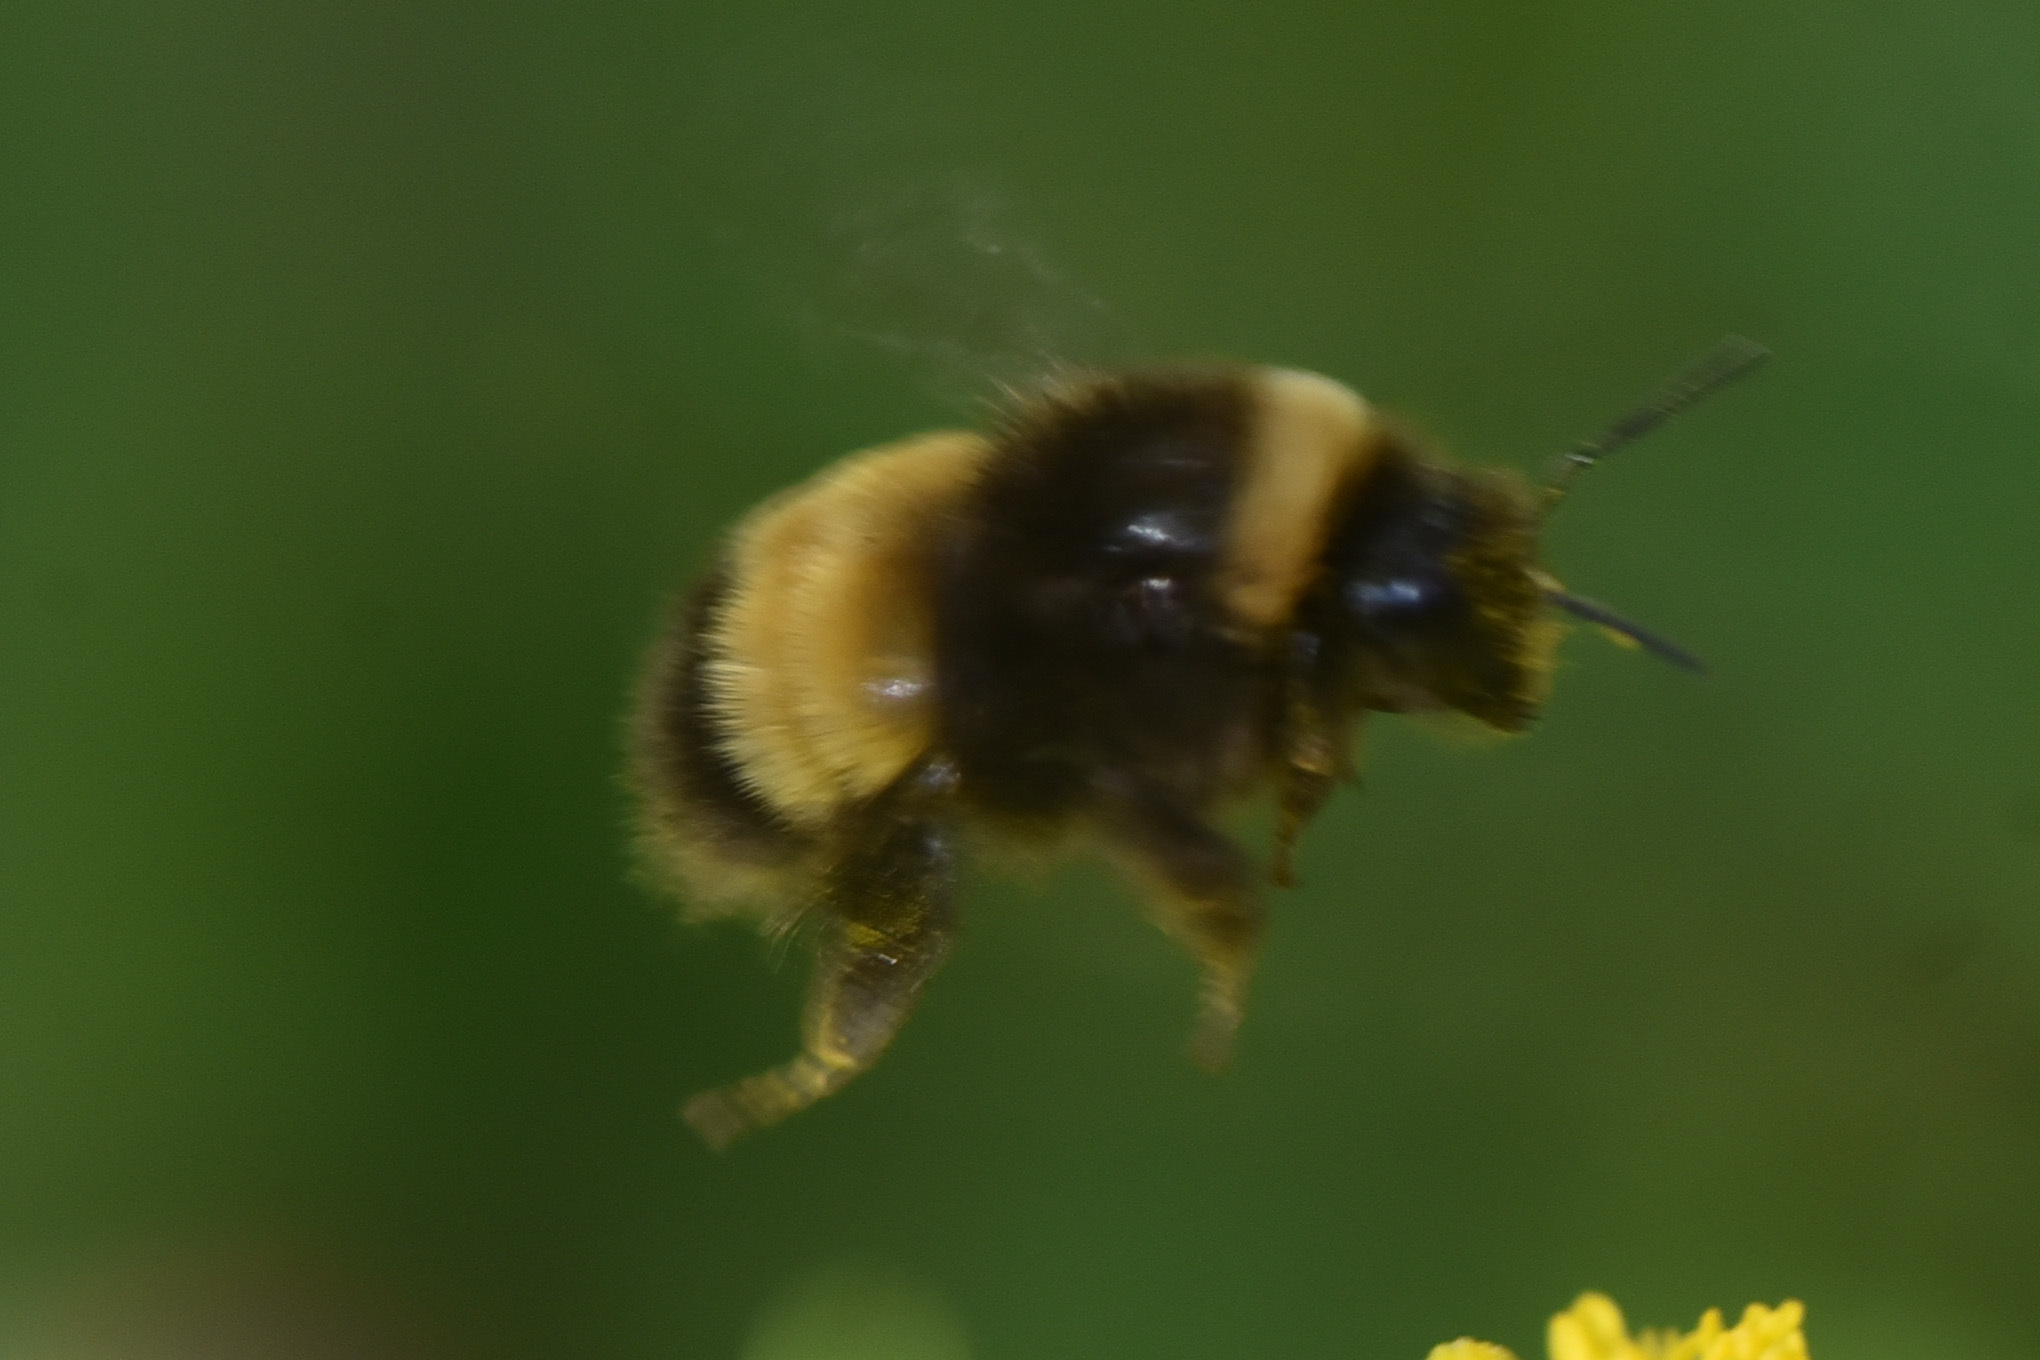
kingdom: Animalia
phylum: Arthropoda
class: Insecta
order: Hymenoptera
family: Apidae
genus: Bombus
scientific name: Bombus terricola
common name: Yellow-banded bumble bee
